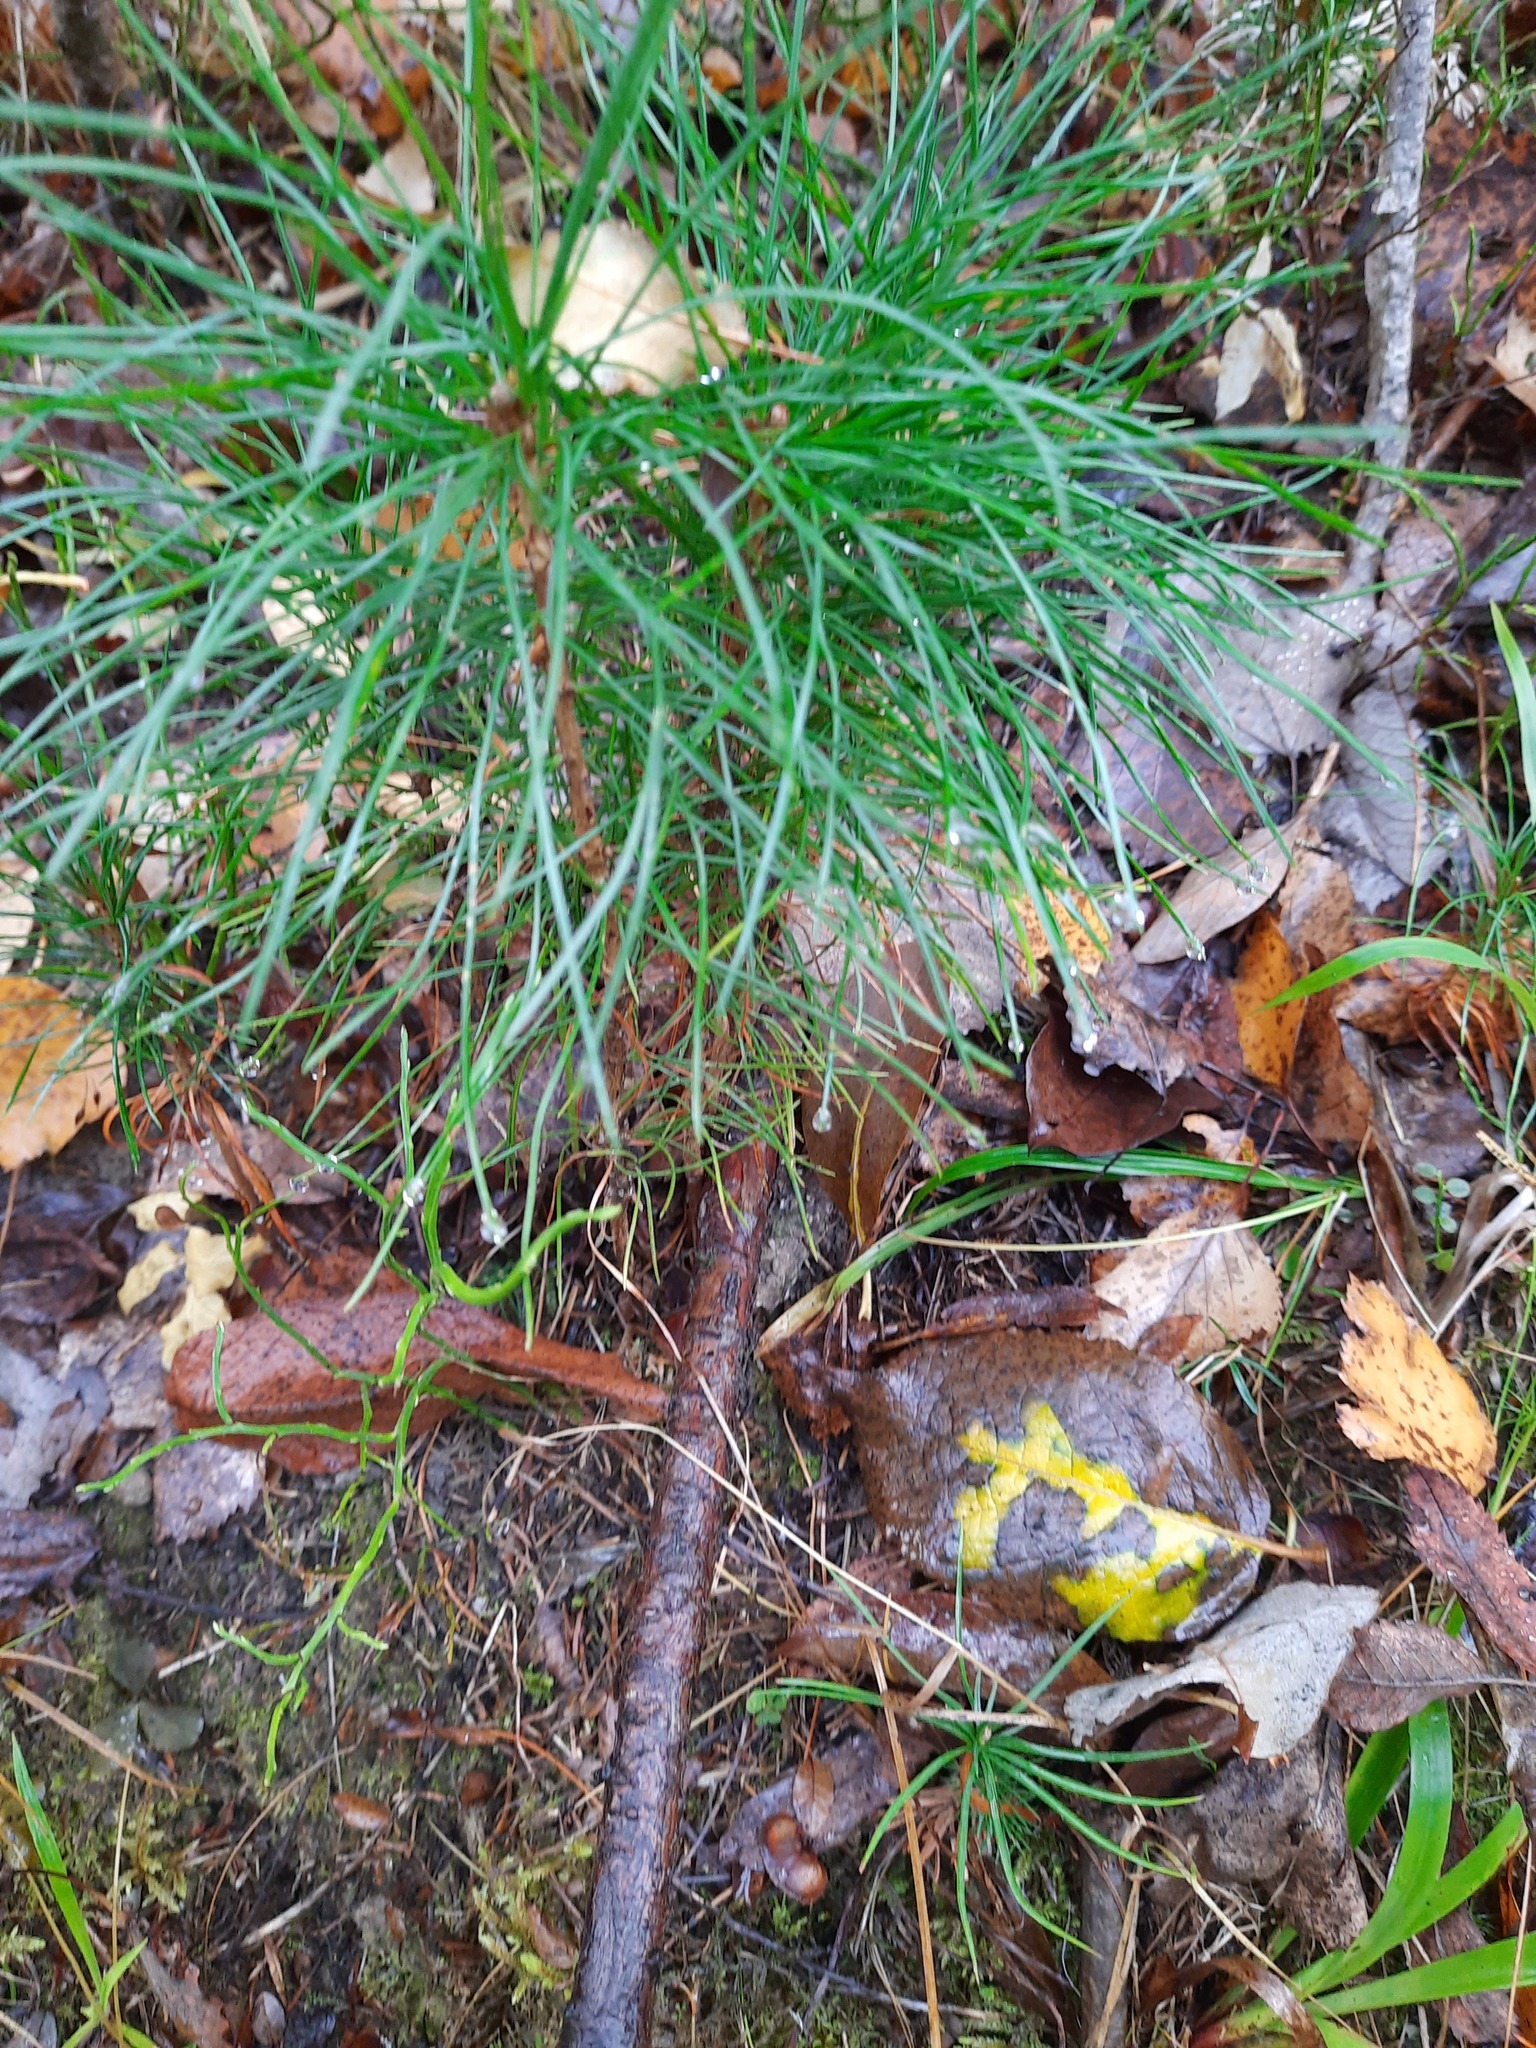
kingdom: Plantae
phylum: Tracheophyta
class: Pinopsida
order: Pinales
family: Pinaceae
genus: Pinus
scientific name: Pinus sibirica
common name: Siberian pine
